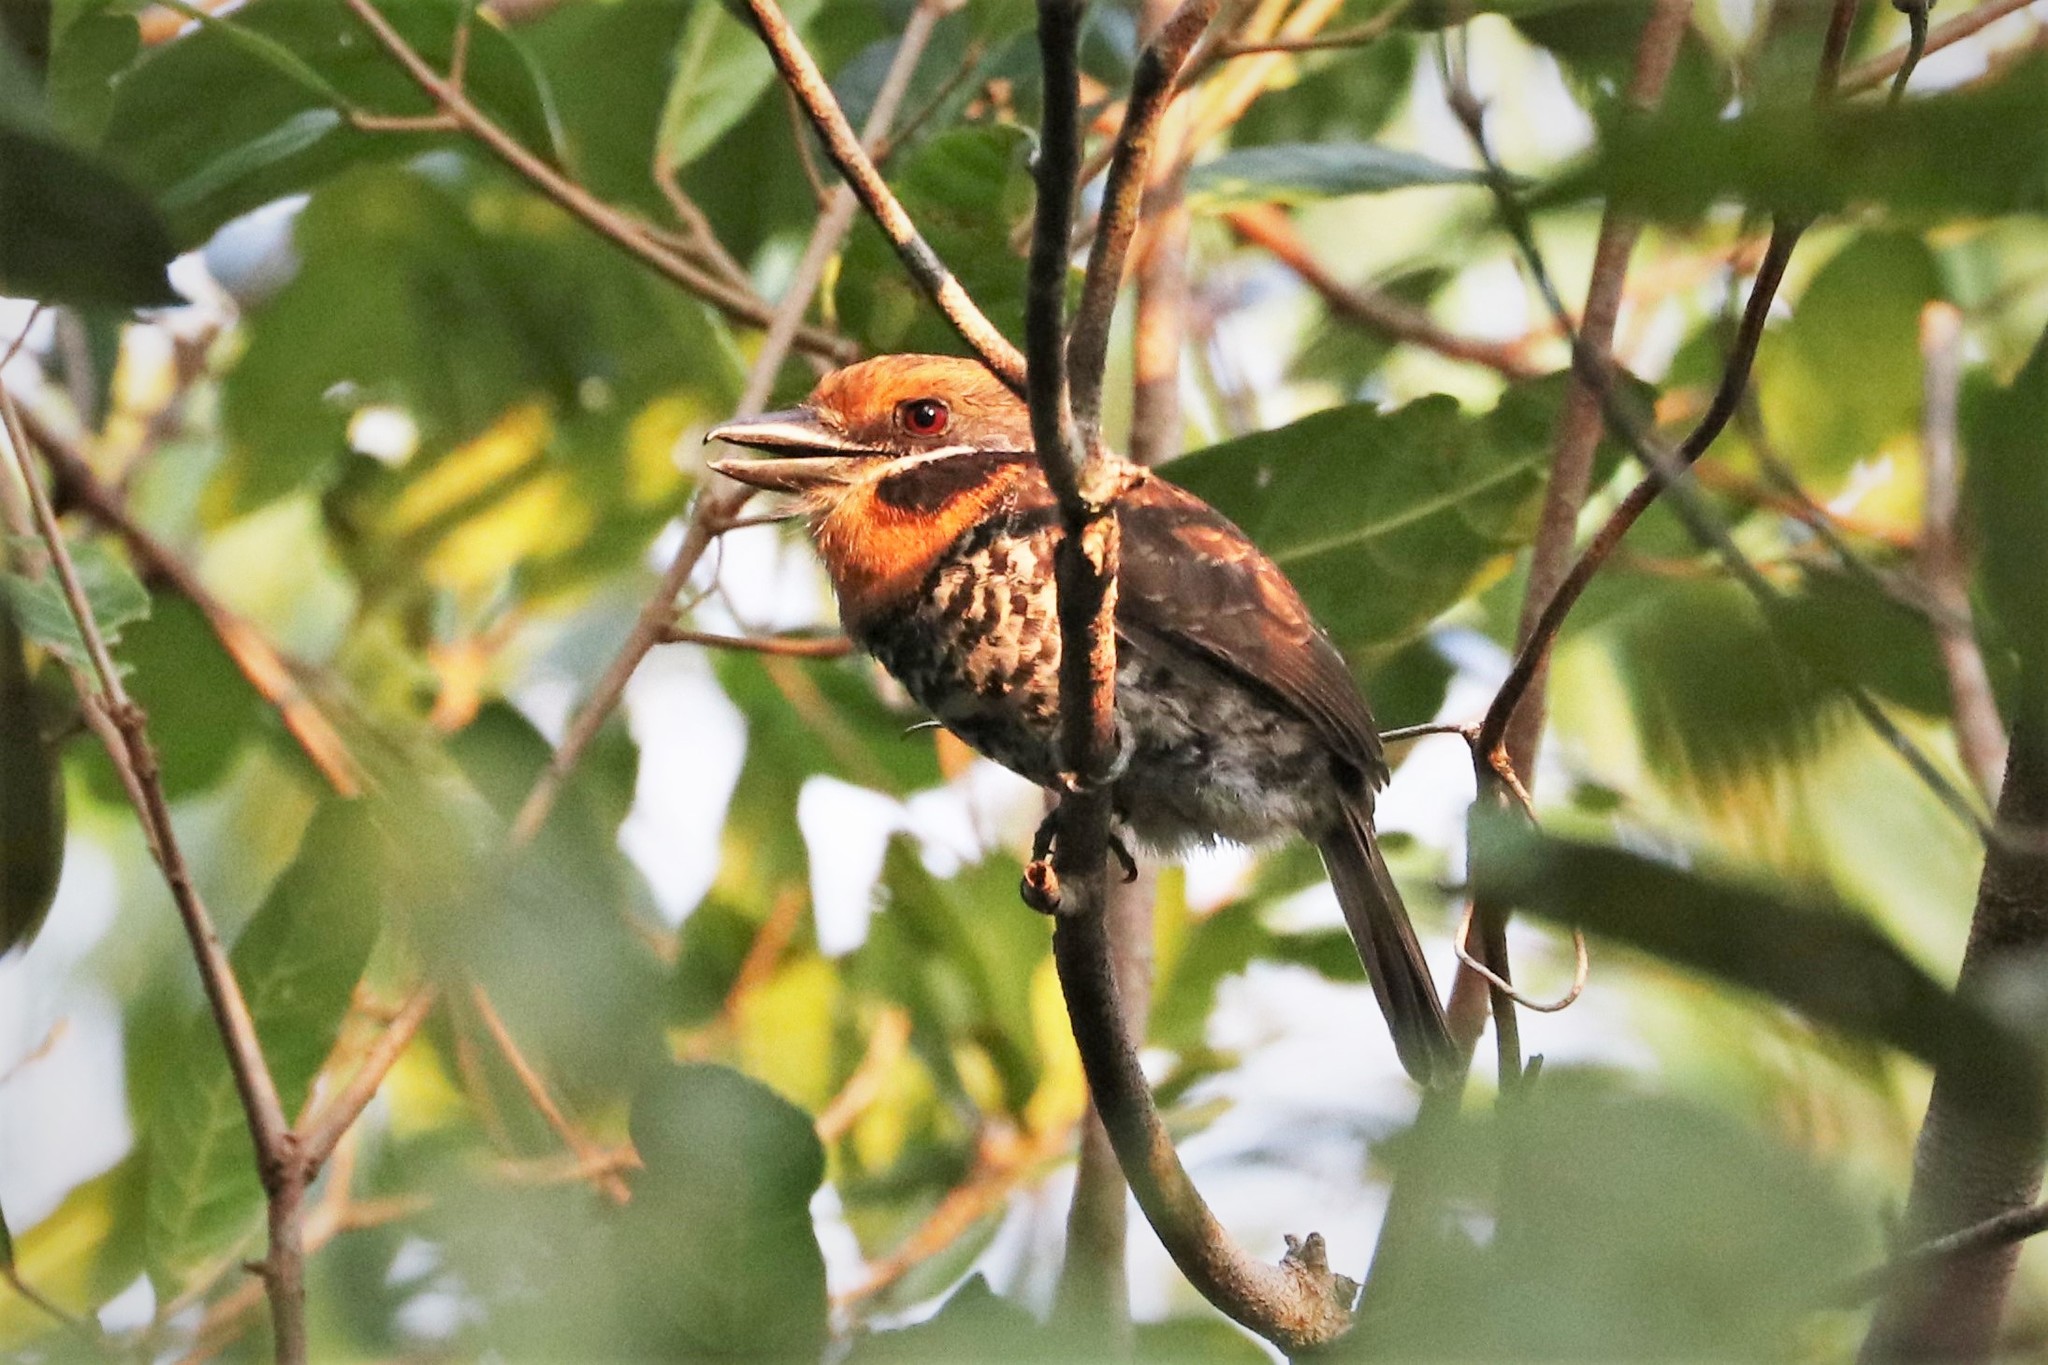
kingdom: Animalia
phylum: Chordata
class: Aves
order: Piciformes
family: Bucconidae
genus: Bucco
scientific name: Bucco tamatia
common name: Spotted puffbird
